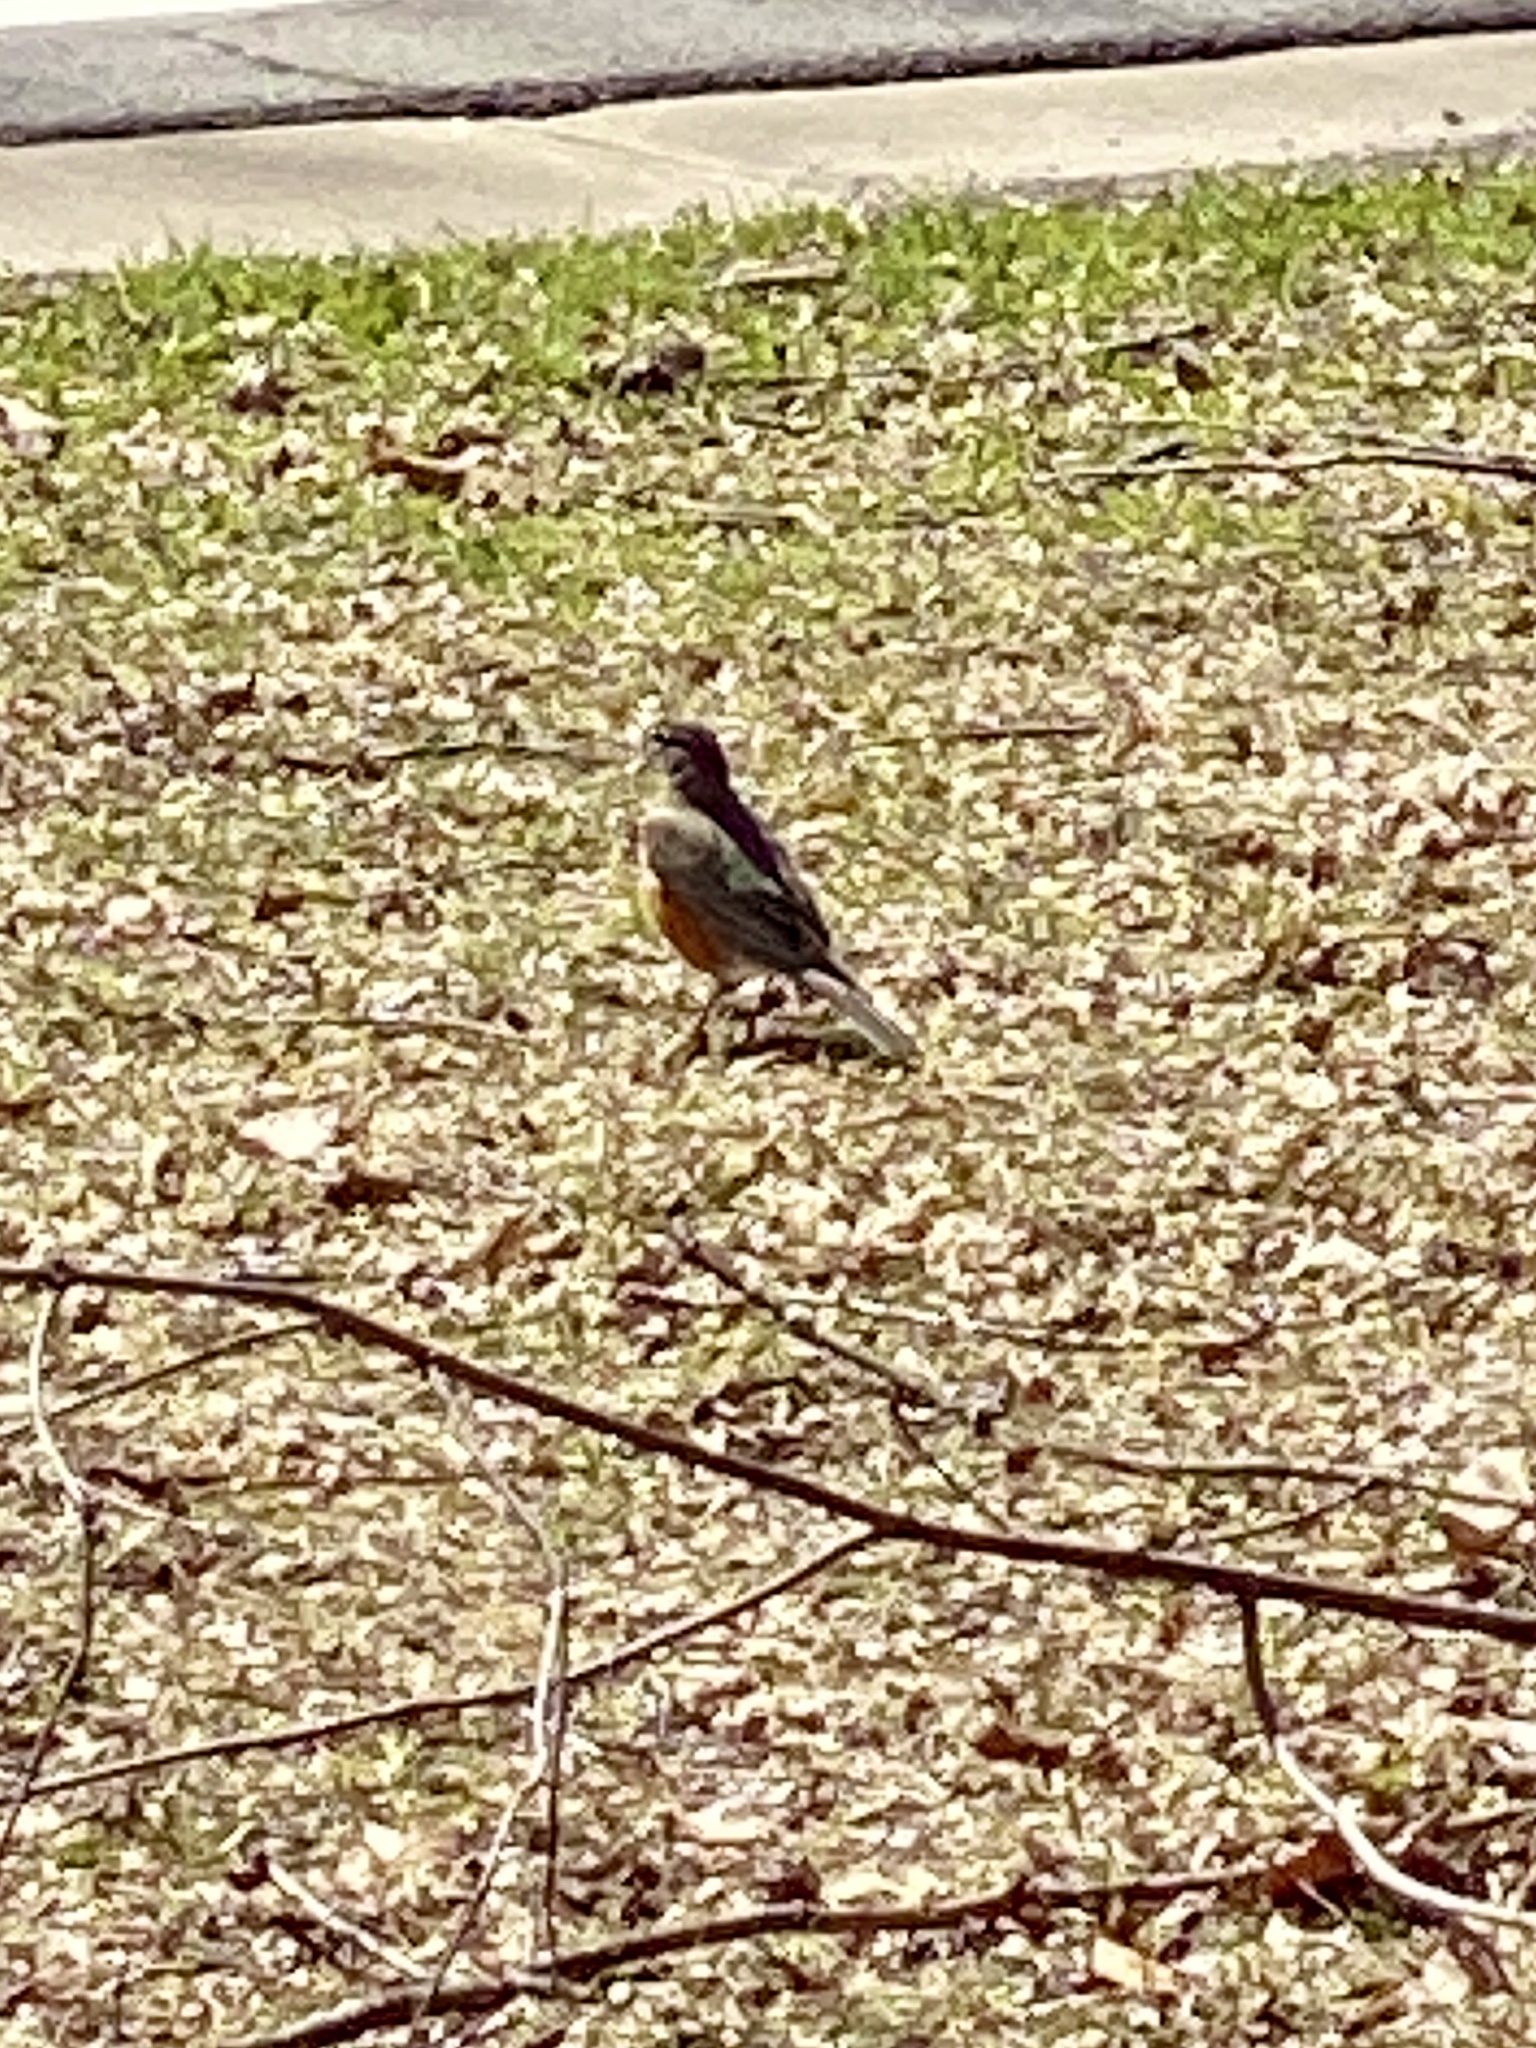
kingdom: Animalia
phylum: Chordata
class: Aves
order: Passeriformes
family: Turdidae
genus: Turdus
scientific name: Turdus migratorius
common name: American robin
